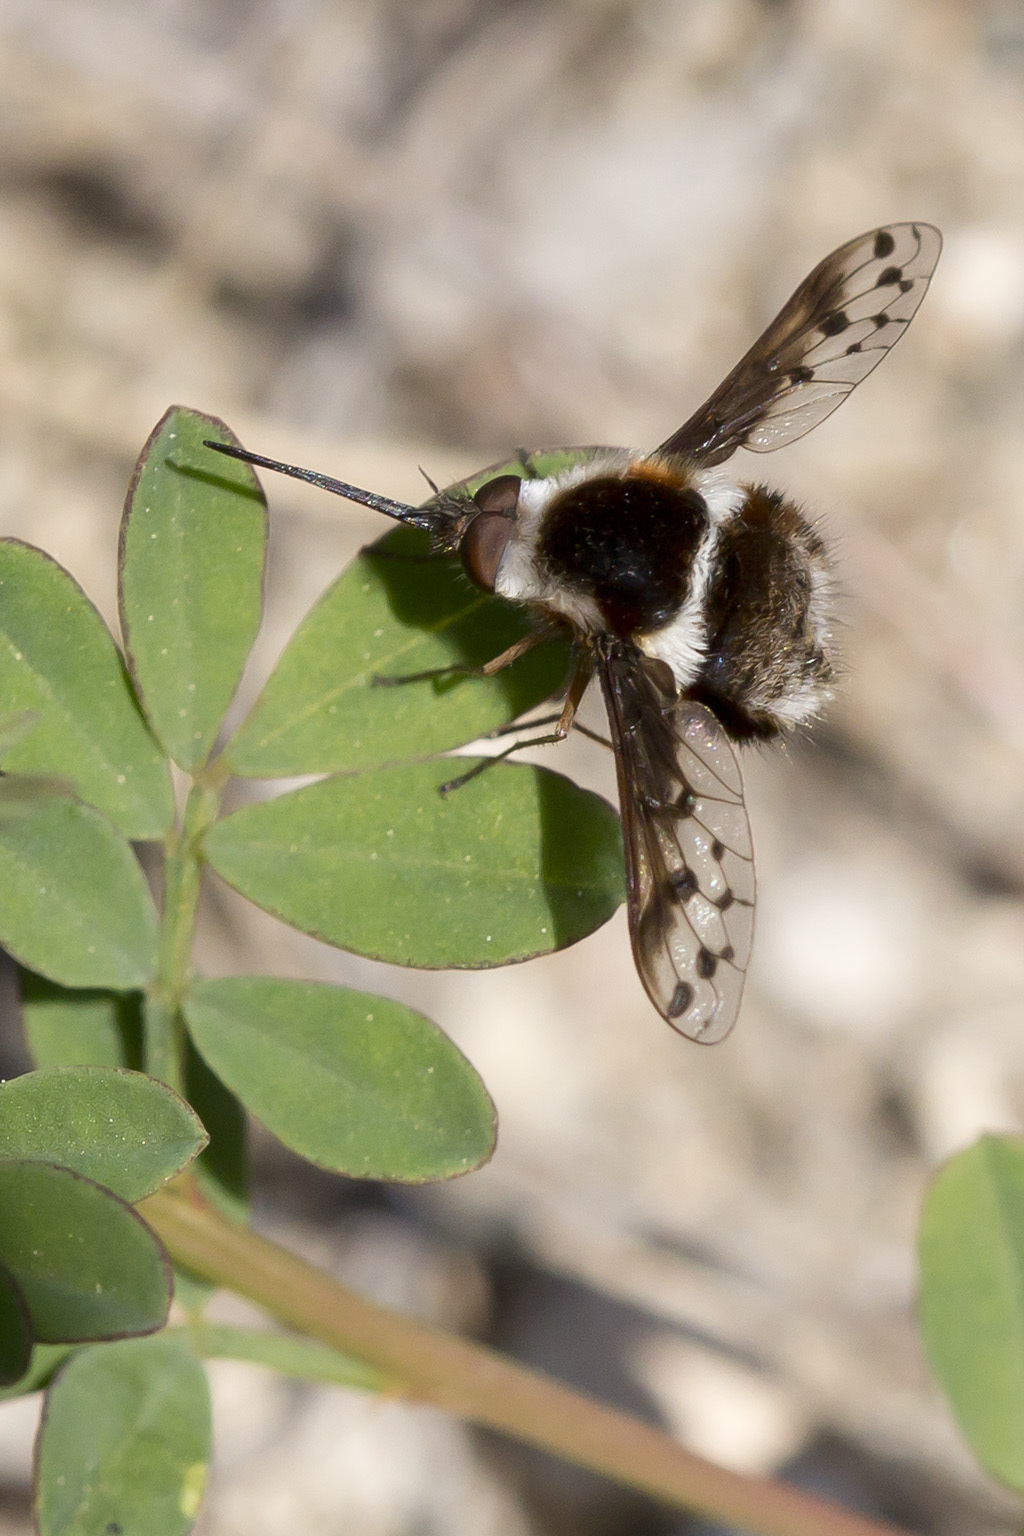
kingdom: Animalia
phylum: Arthropoda
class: Insecta
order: Diptera
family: Bombyliidae
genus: Bombylius
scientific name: Bombylius pygmaeus
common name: Pygmy bee fly
